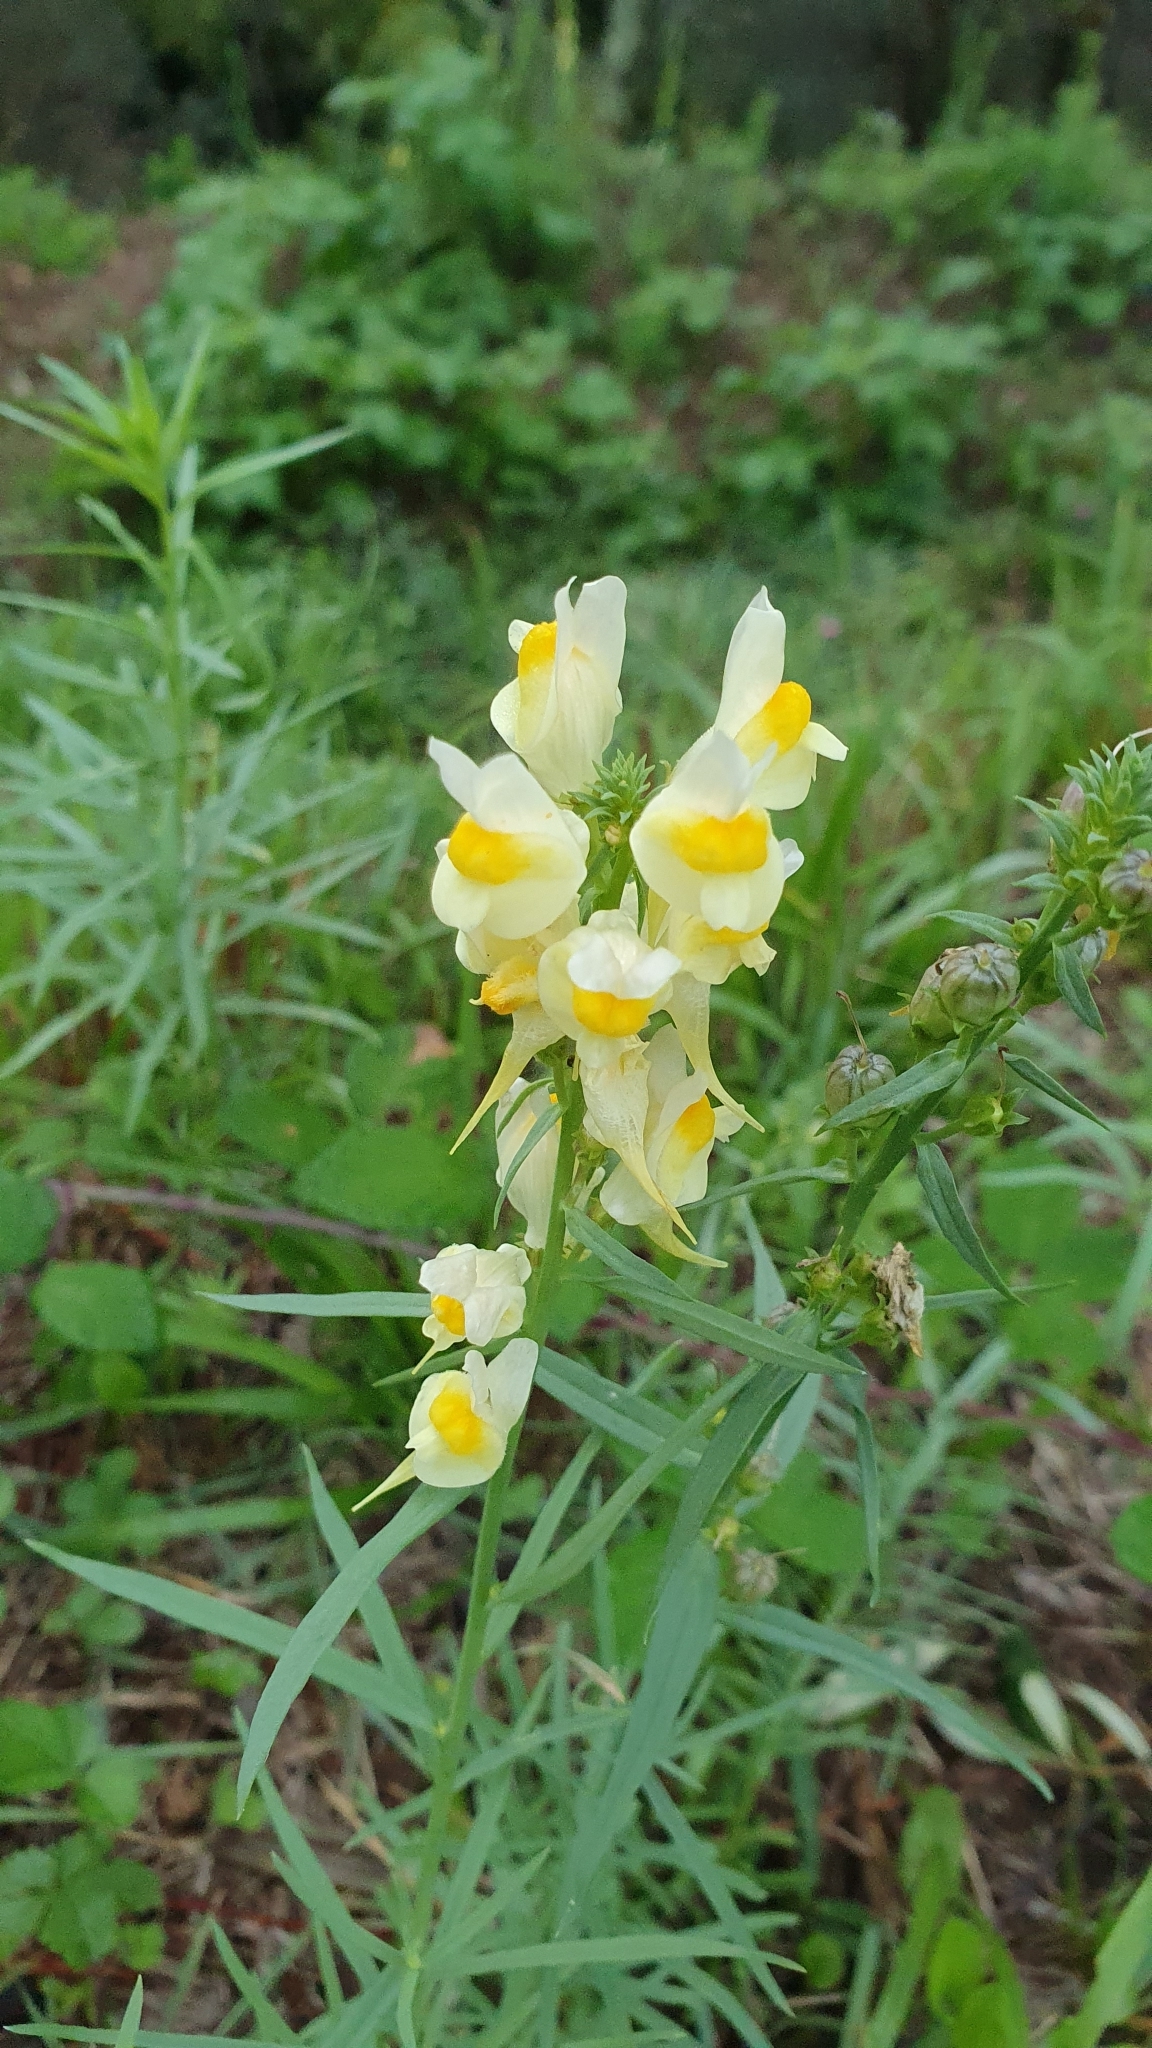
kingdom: Plantae
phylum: Tracheophyta
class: Magnoliopsida
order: Lamiales
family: Plantaginaceae
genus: Linaria
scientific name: Linaria vulgaris
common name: Butter and eggs
